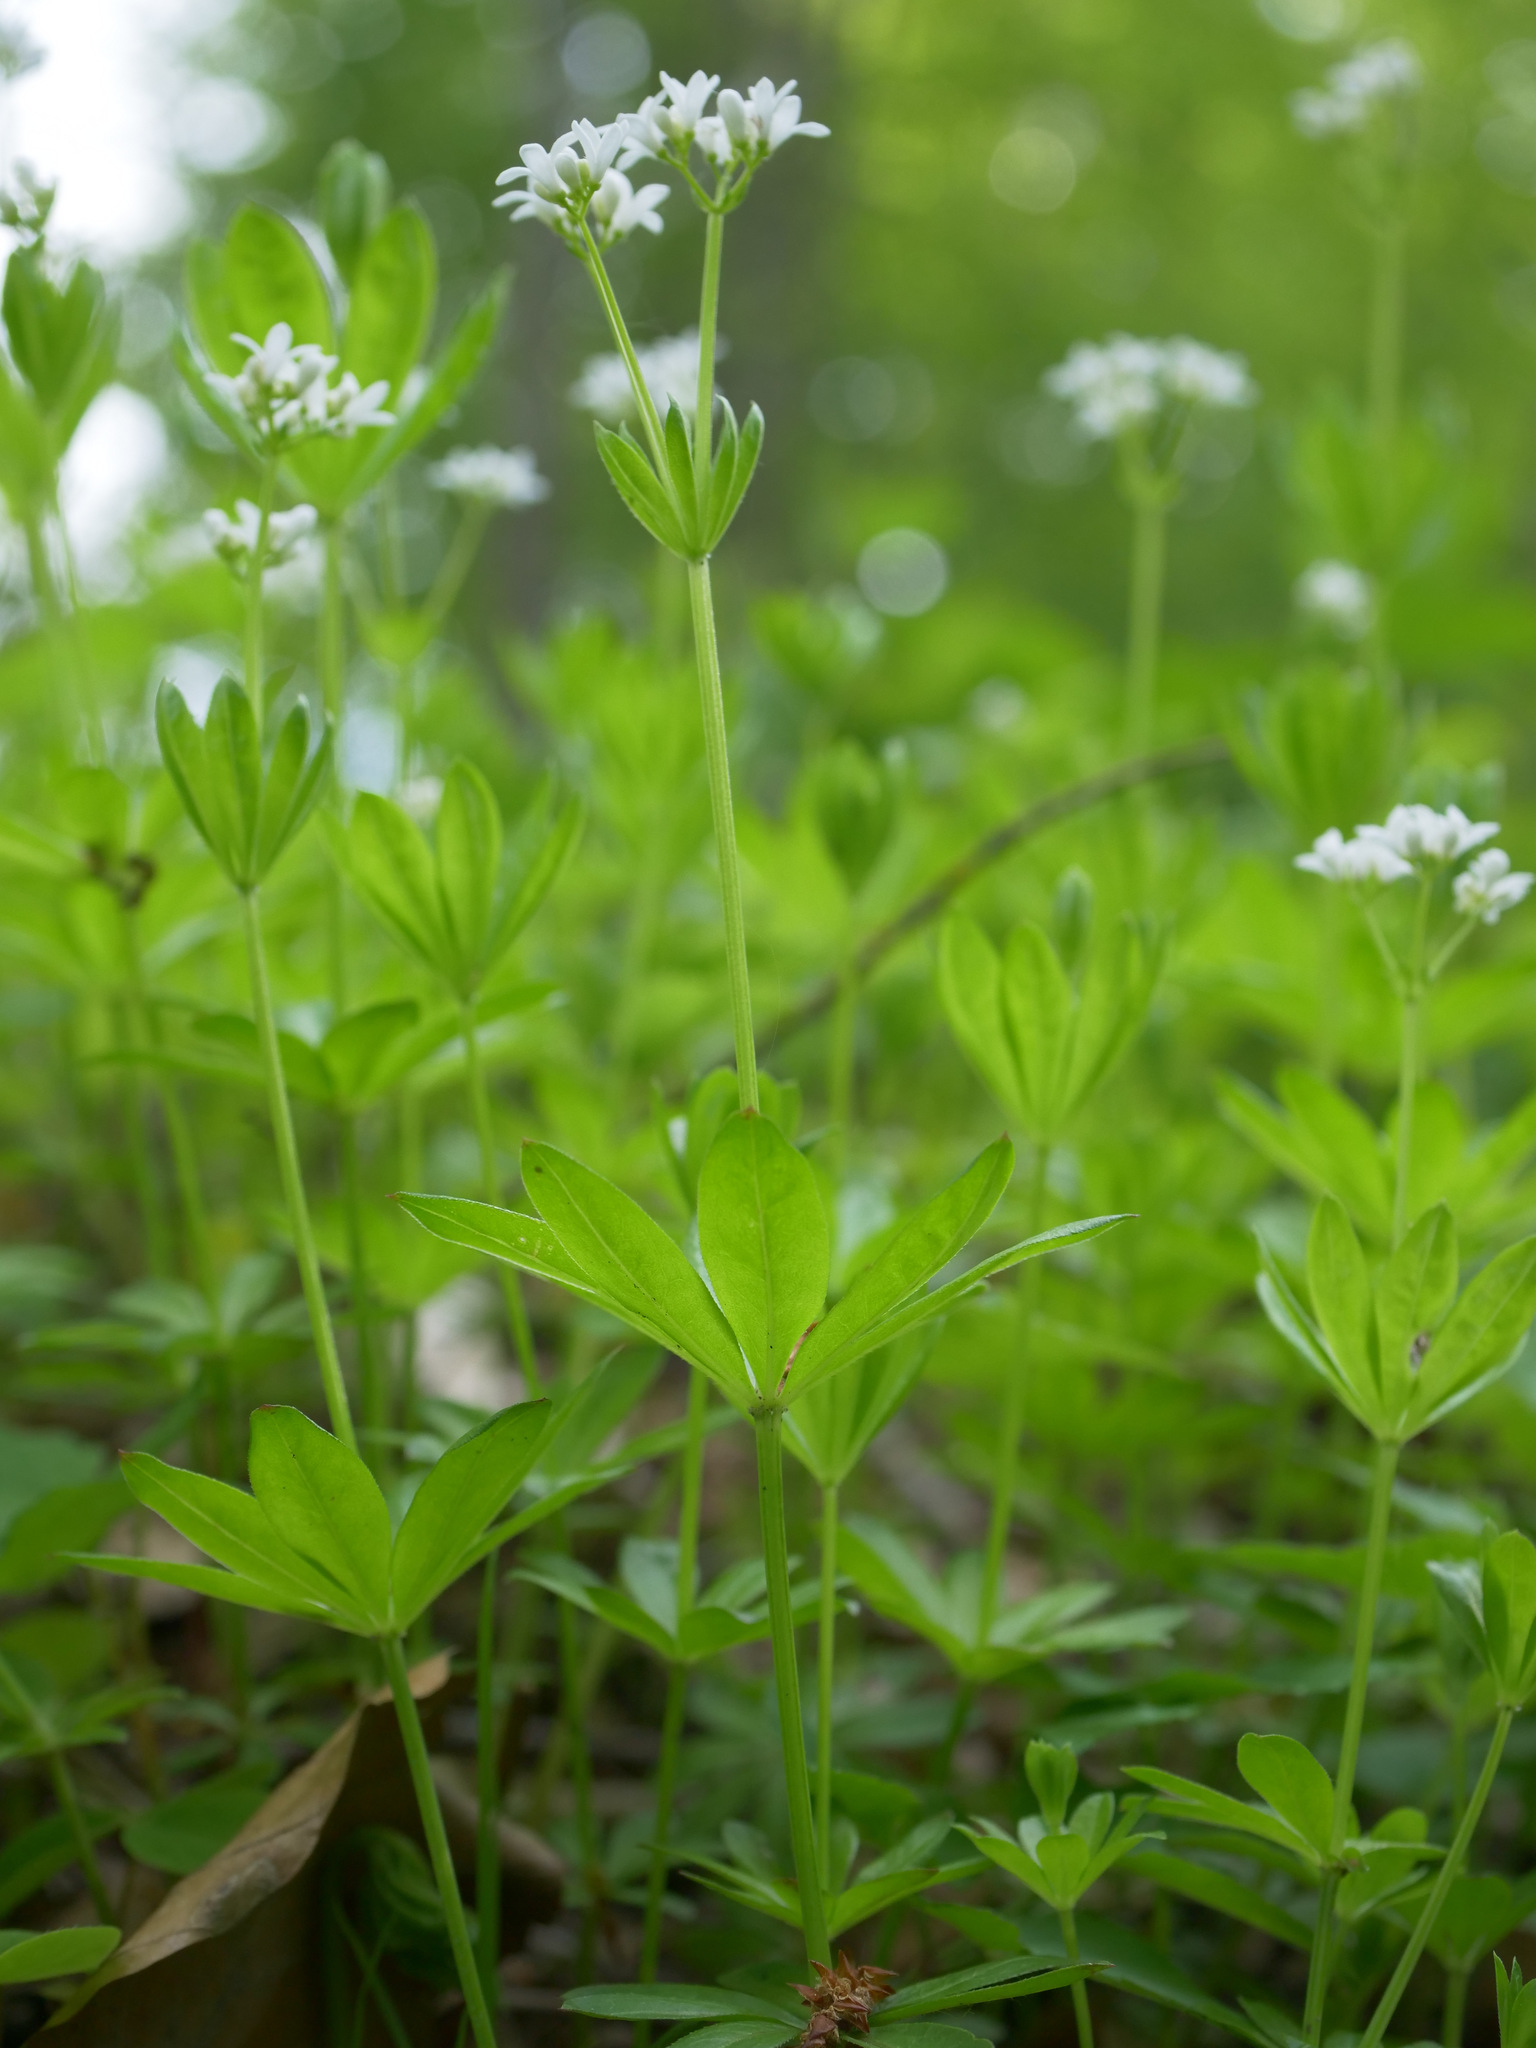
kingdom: Plantae
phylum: Tracheophyta
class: Magnoliopsida
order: Gentianales
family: Rubiaceae
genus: Galium
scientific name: Galium odoratum
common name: Sweet woodruff
